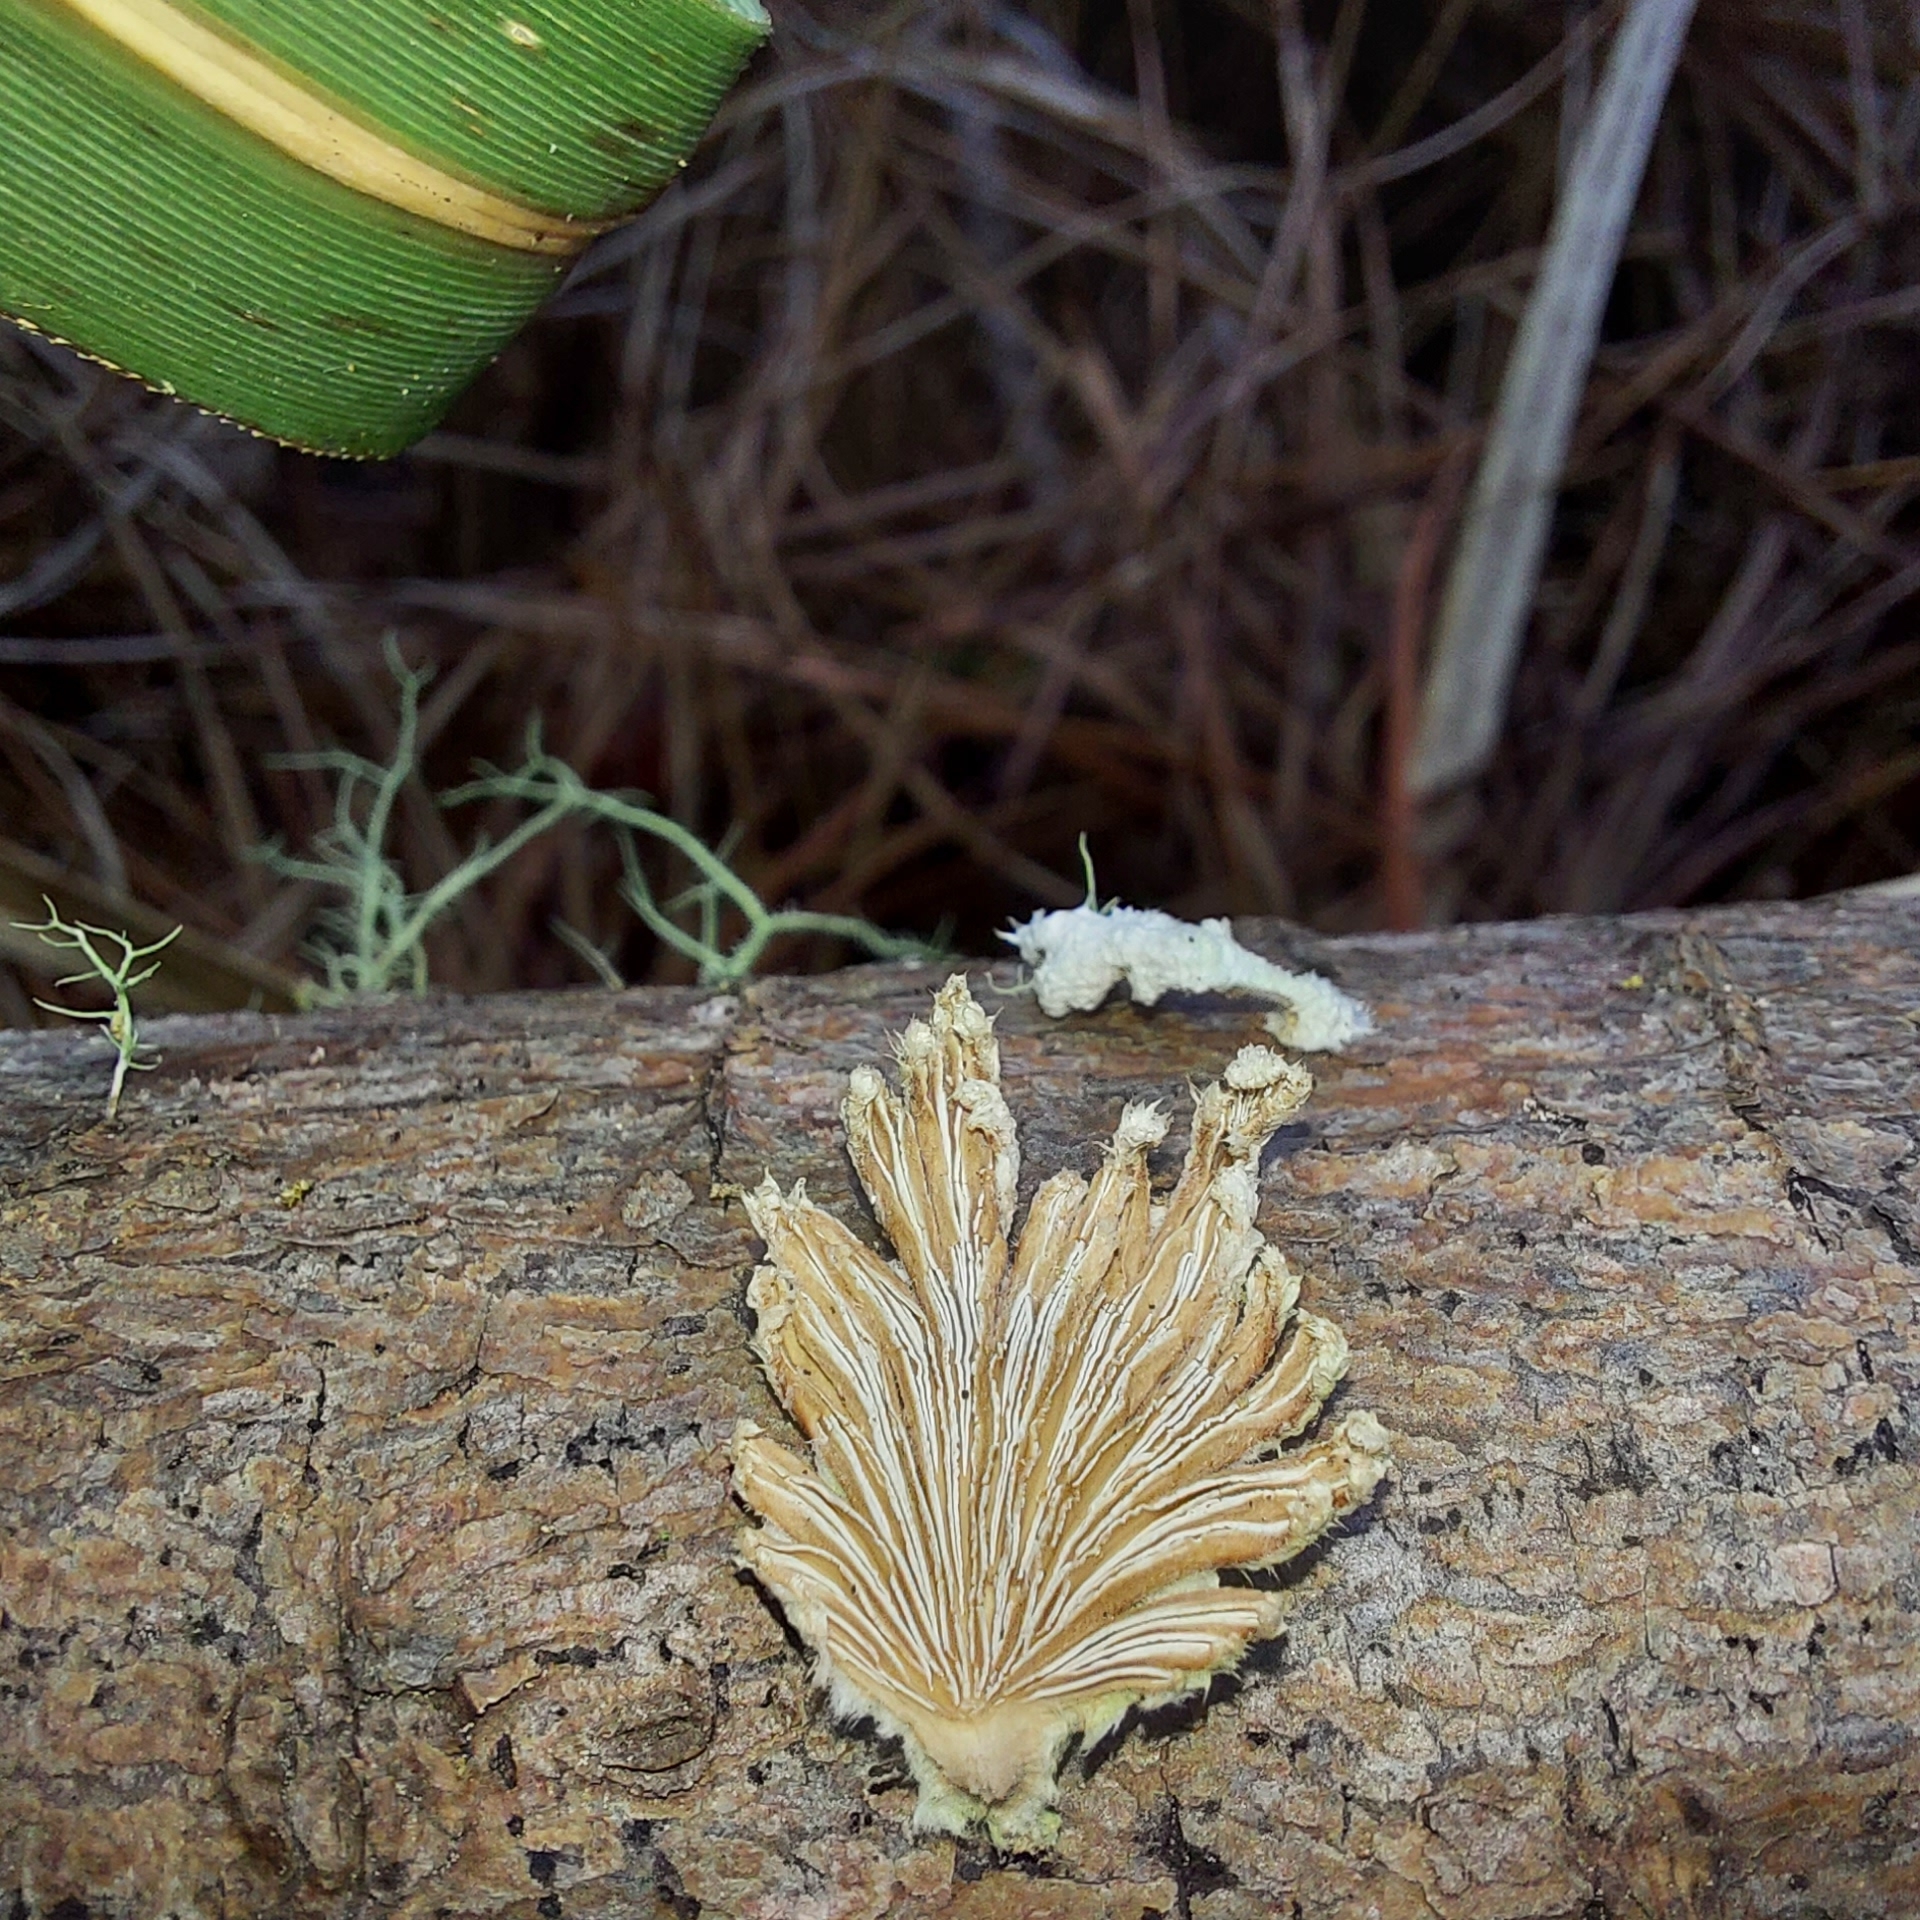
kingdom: Fungi
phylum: Basidiomycota
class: Agaricomycetes
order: Agaricales
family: Schizophyllaceae
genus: Schizophyllum
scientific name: Schizophyllum commune
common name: Common porecrust
